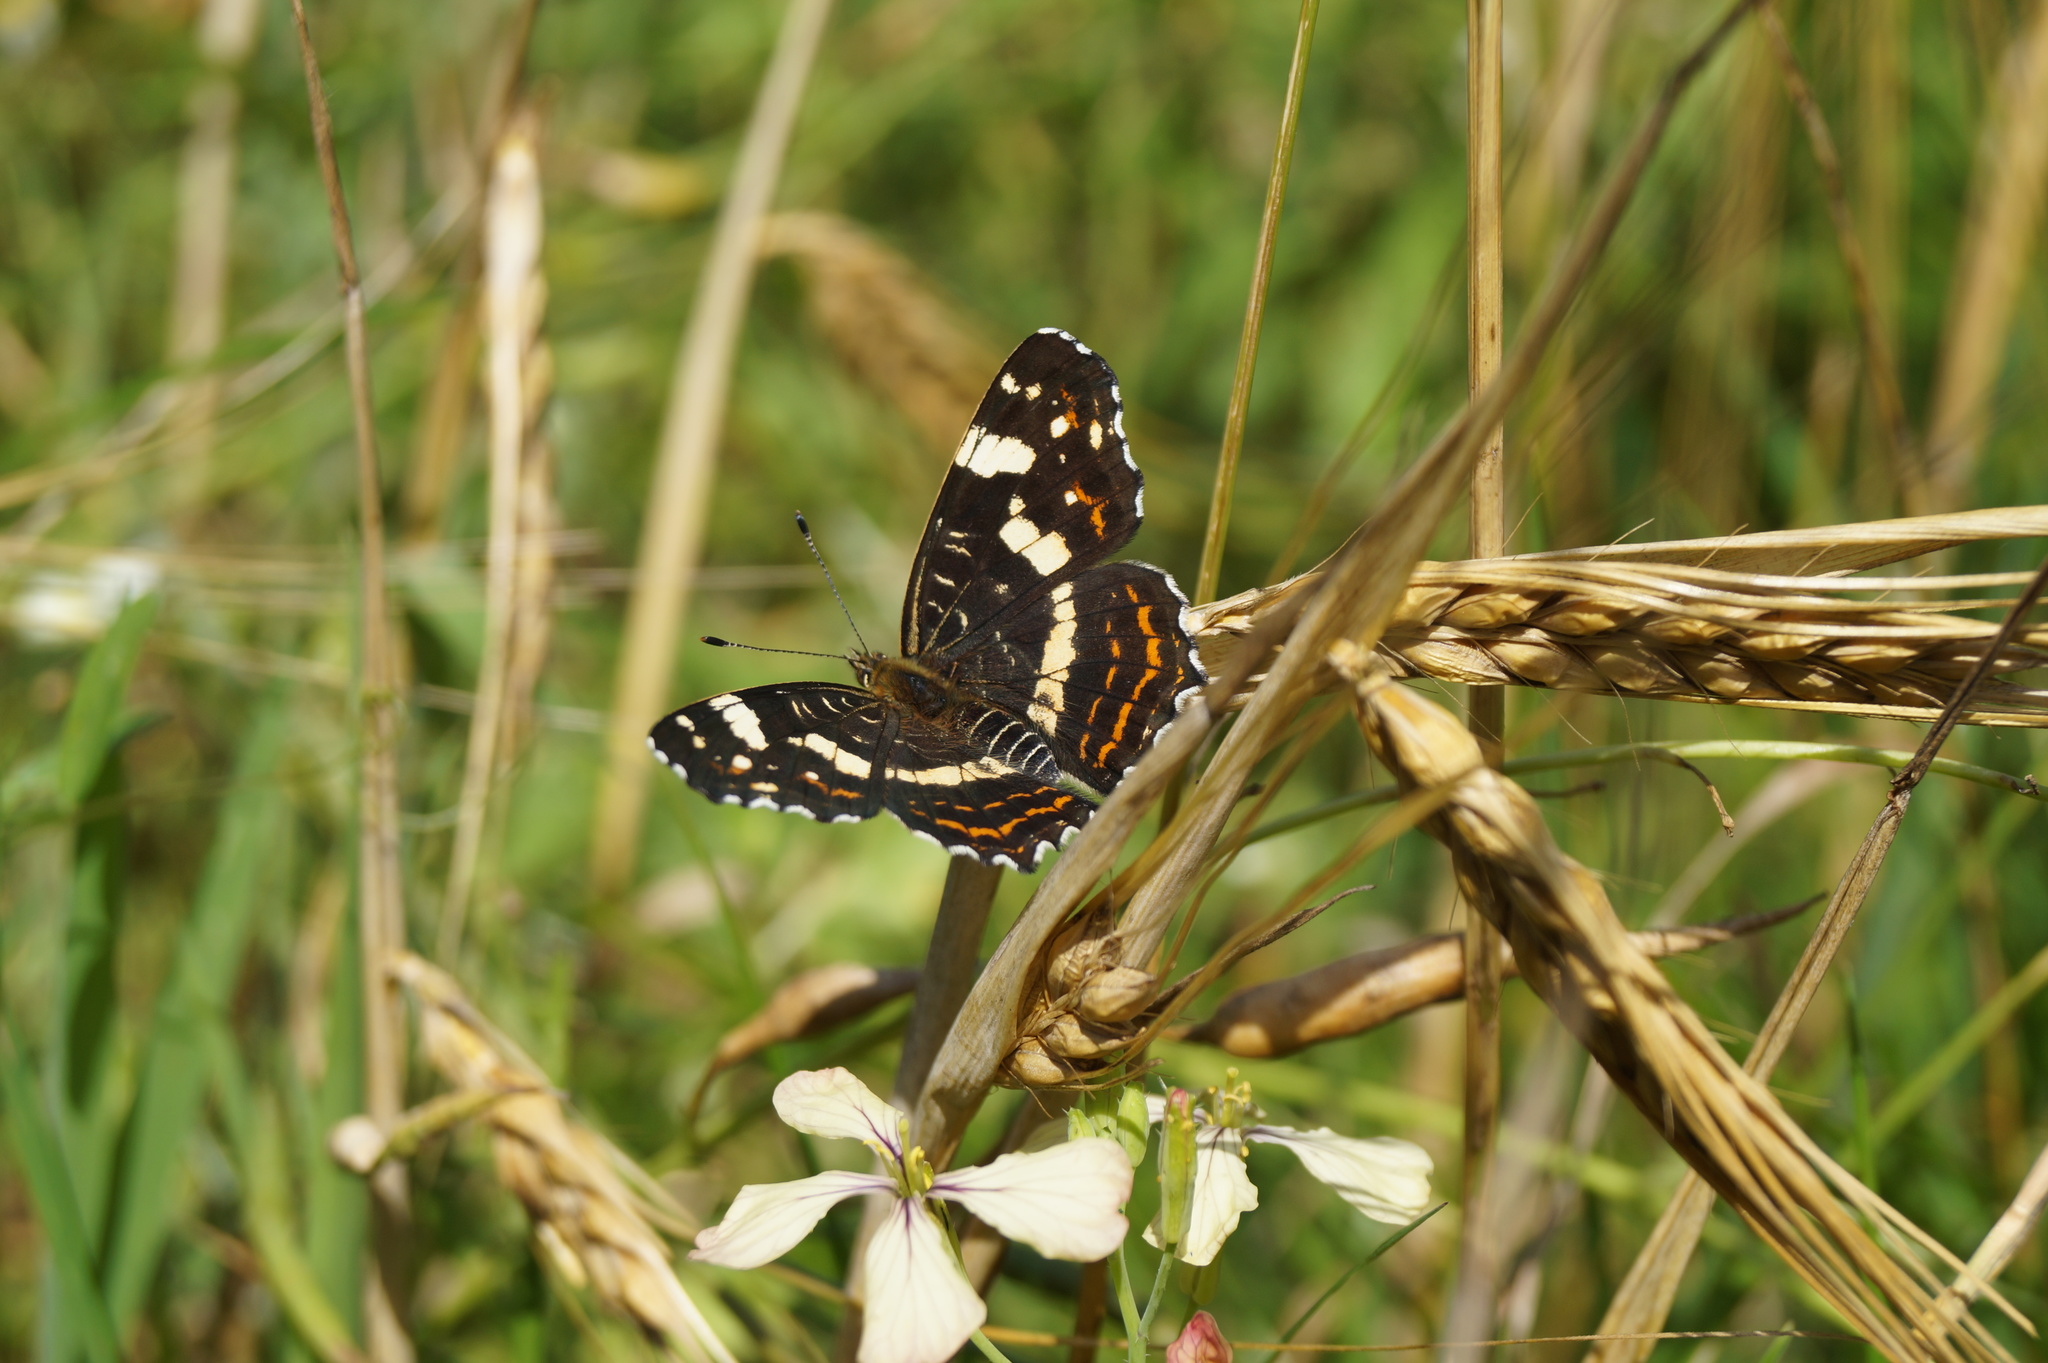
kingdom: Animalia
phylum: Arthropoda
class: Insecta
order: Lepidoptera
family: Nymphalidae
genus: Araschnia
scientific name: Araschnia levana
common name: Map butterfly
